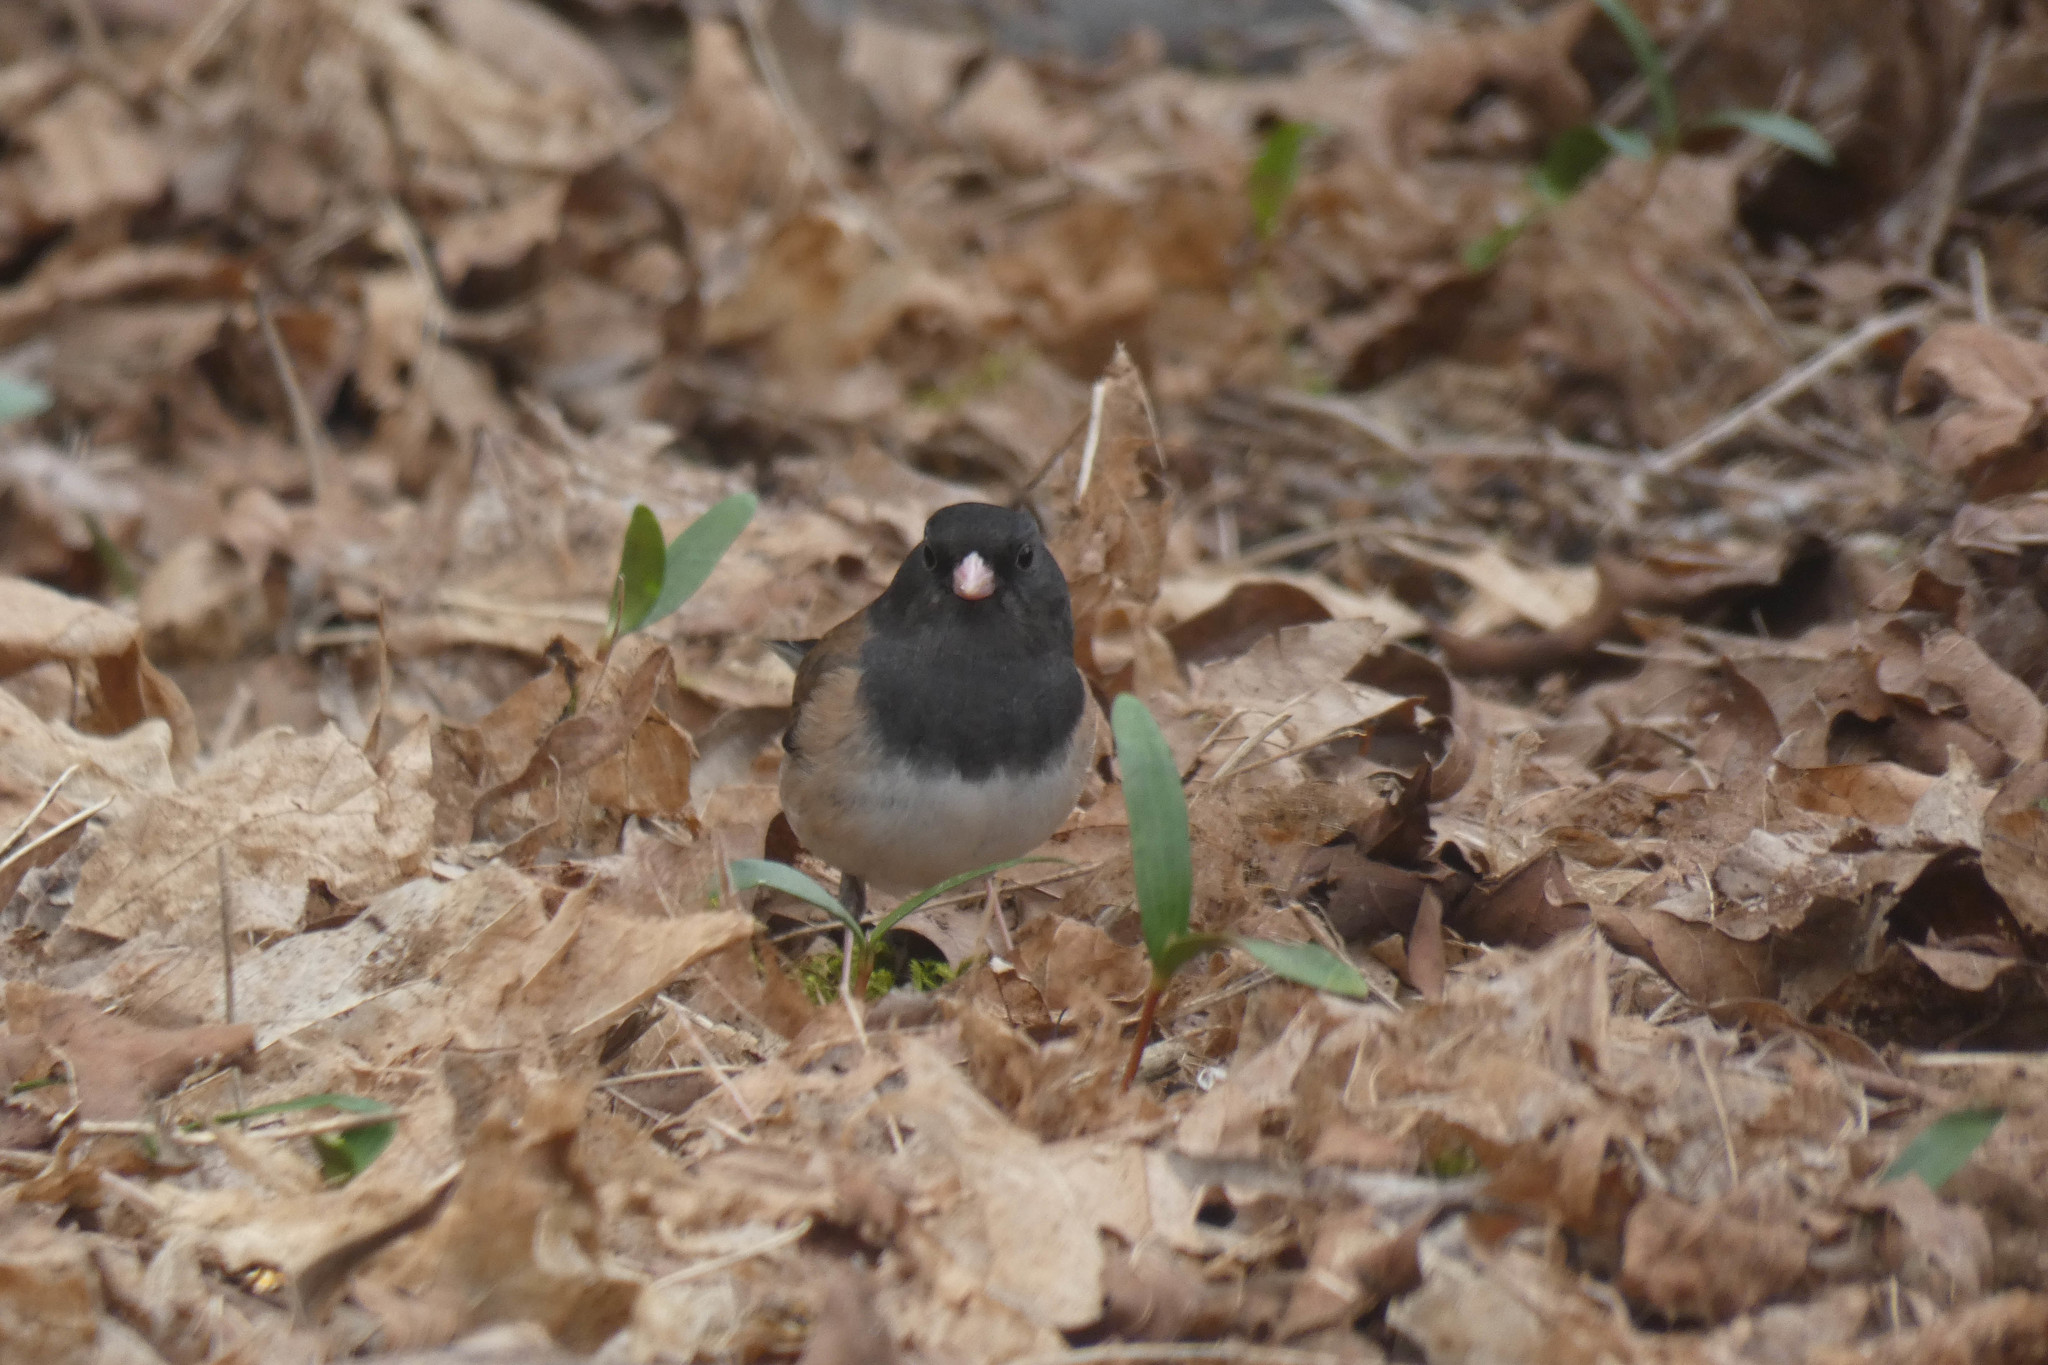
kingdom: Animalia
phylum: Chordata
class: Aves
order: Passeriformes
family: Passerellidae
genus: Junco
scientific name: Junco hyemalis
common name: Dark-eyed junco
